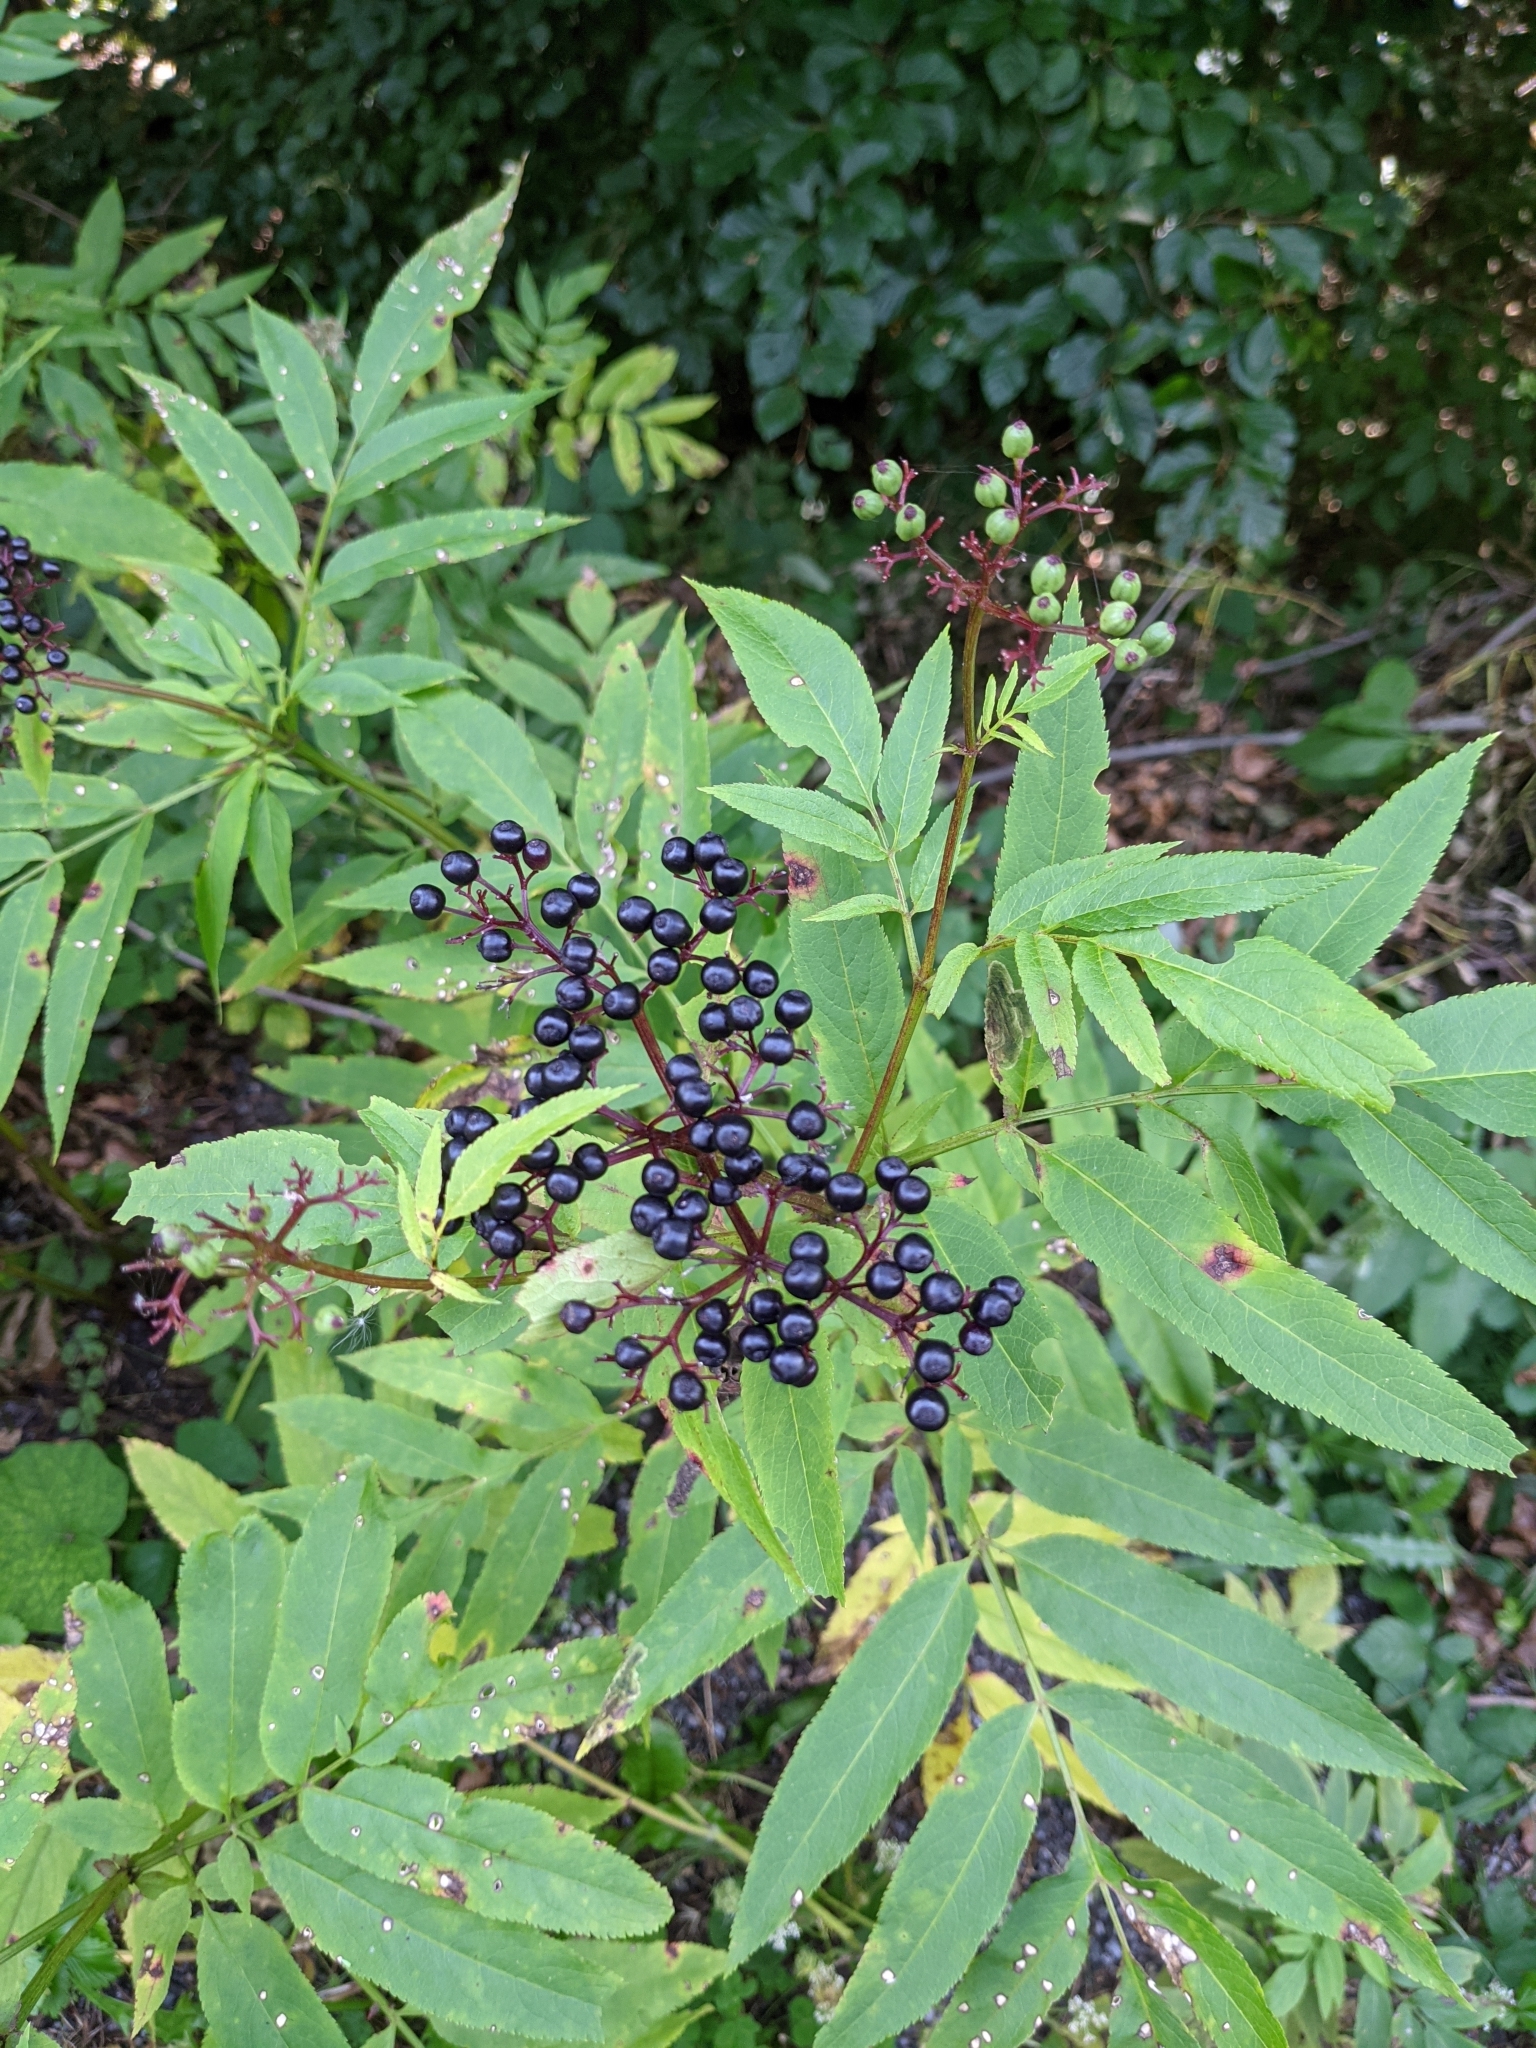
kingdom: Plantae
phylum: Tracheophyta
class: Magnoliopsida
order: Dipsacales
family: Viburnaceae
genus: Sambucus
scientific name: Sambucus ebulus
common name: Dwarf elder
